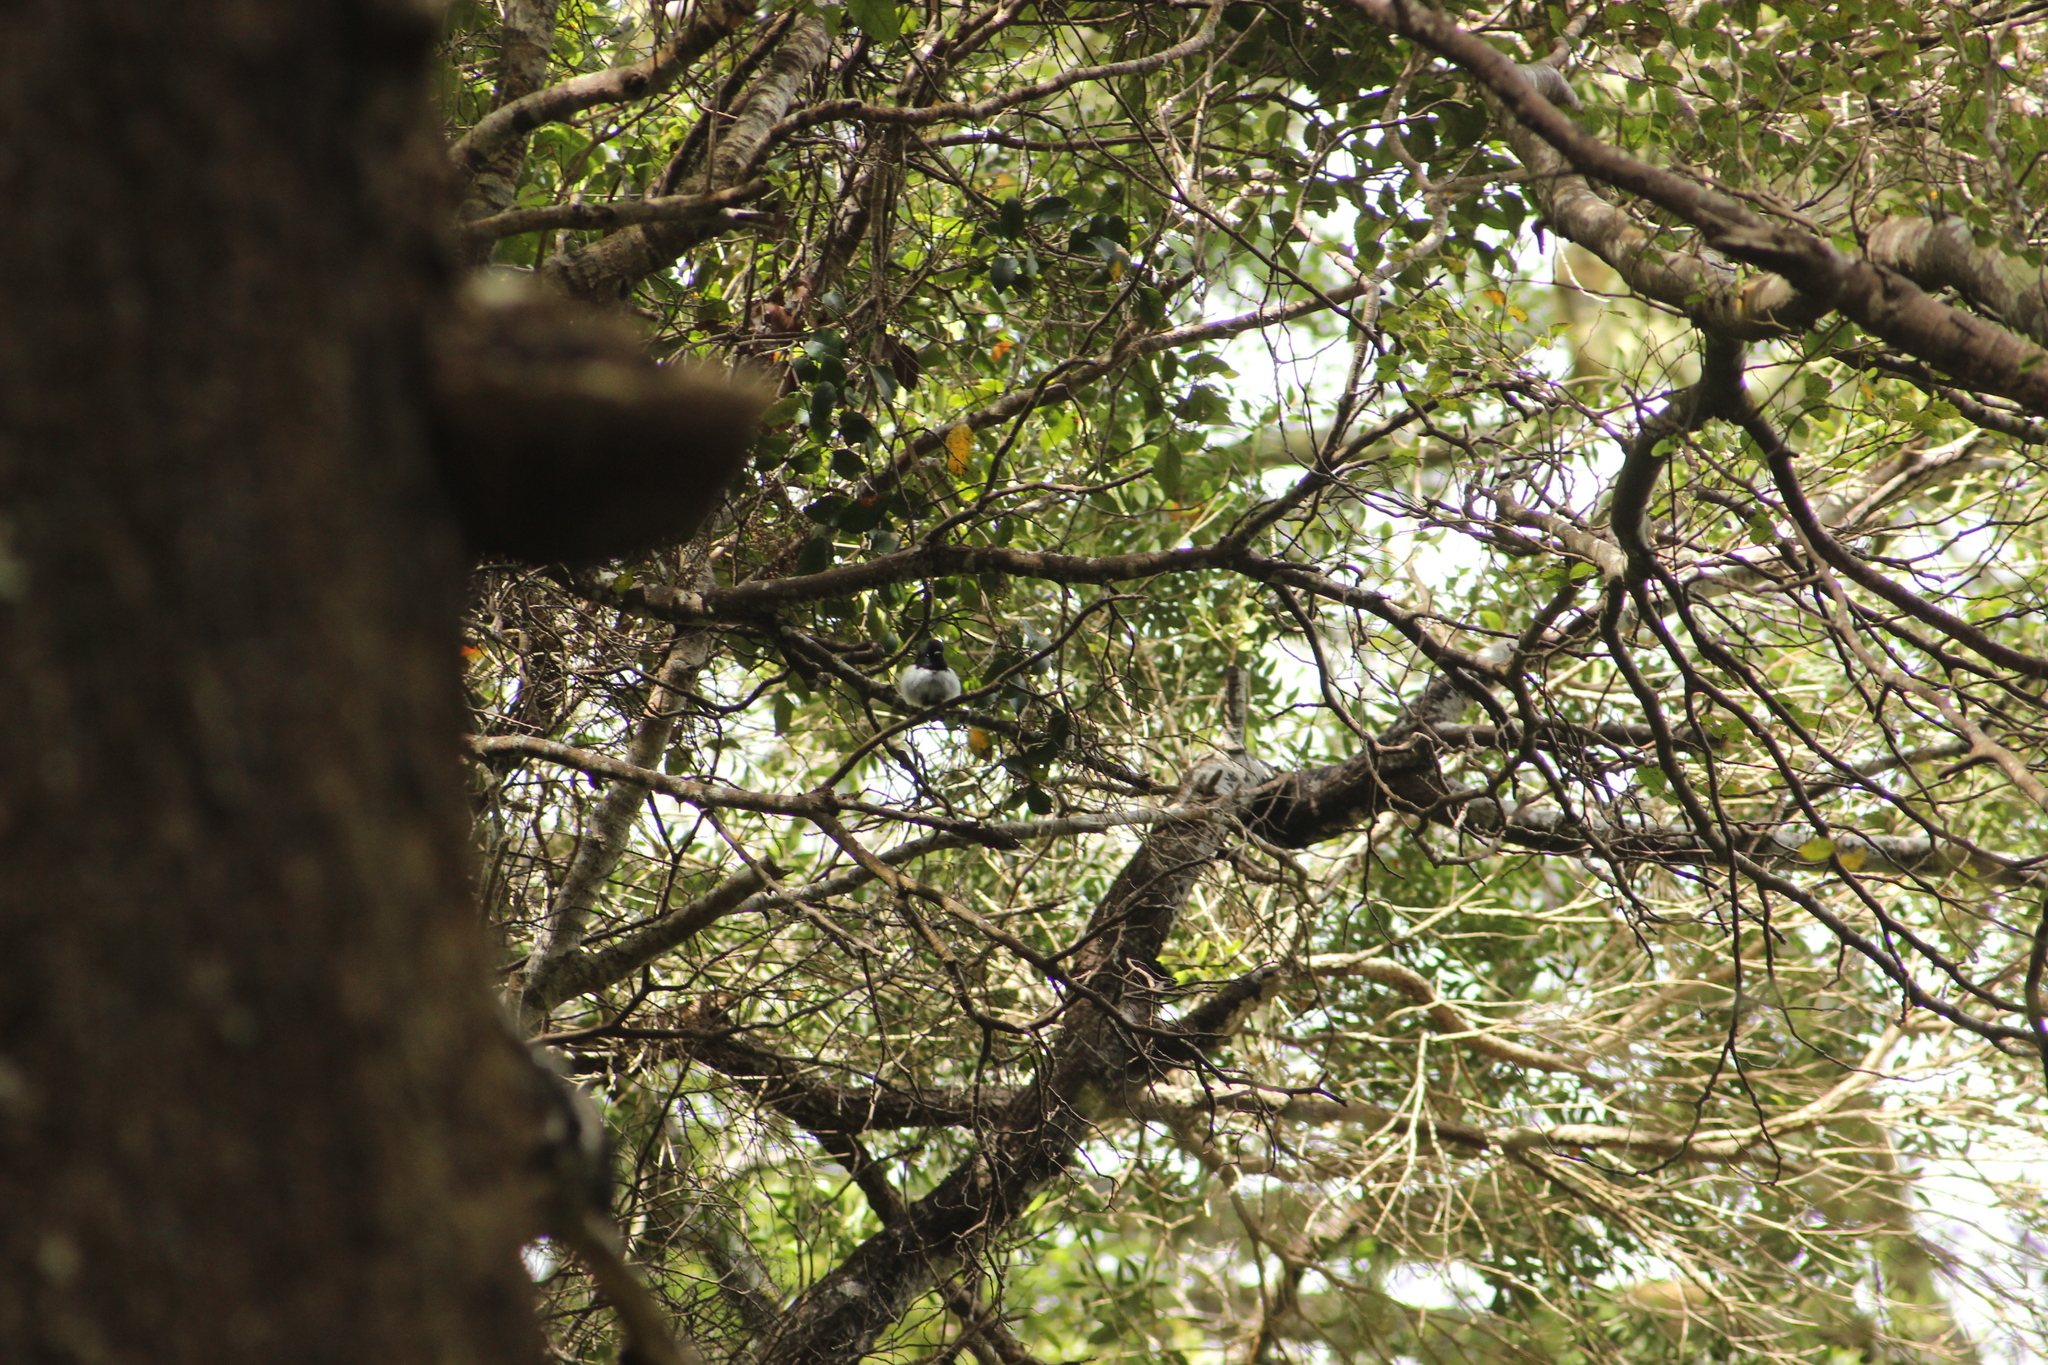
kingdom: Animalia
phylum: Chordata
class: Aves
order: Passeriformes
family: Petroicidae
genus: Petroica
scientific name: Petroica macrocephala
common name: Tomtit
